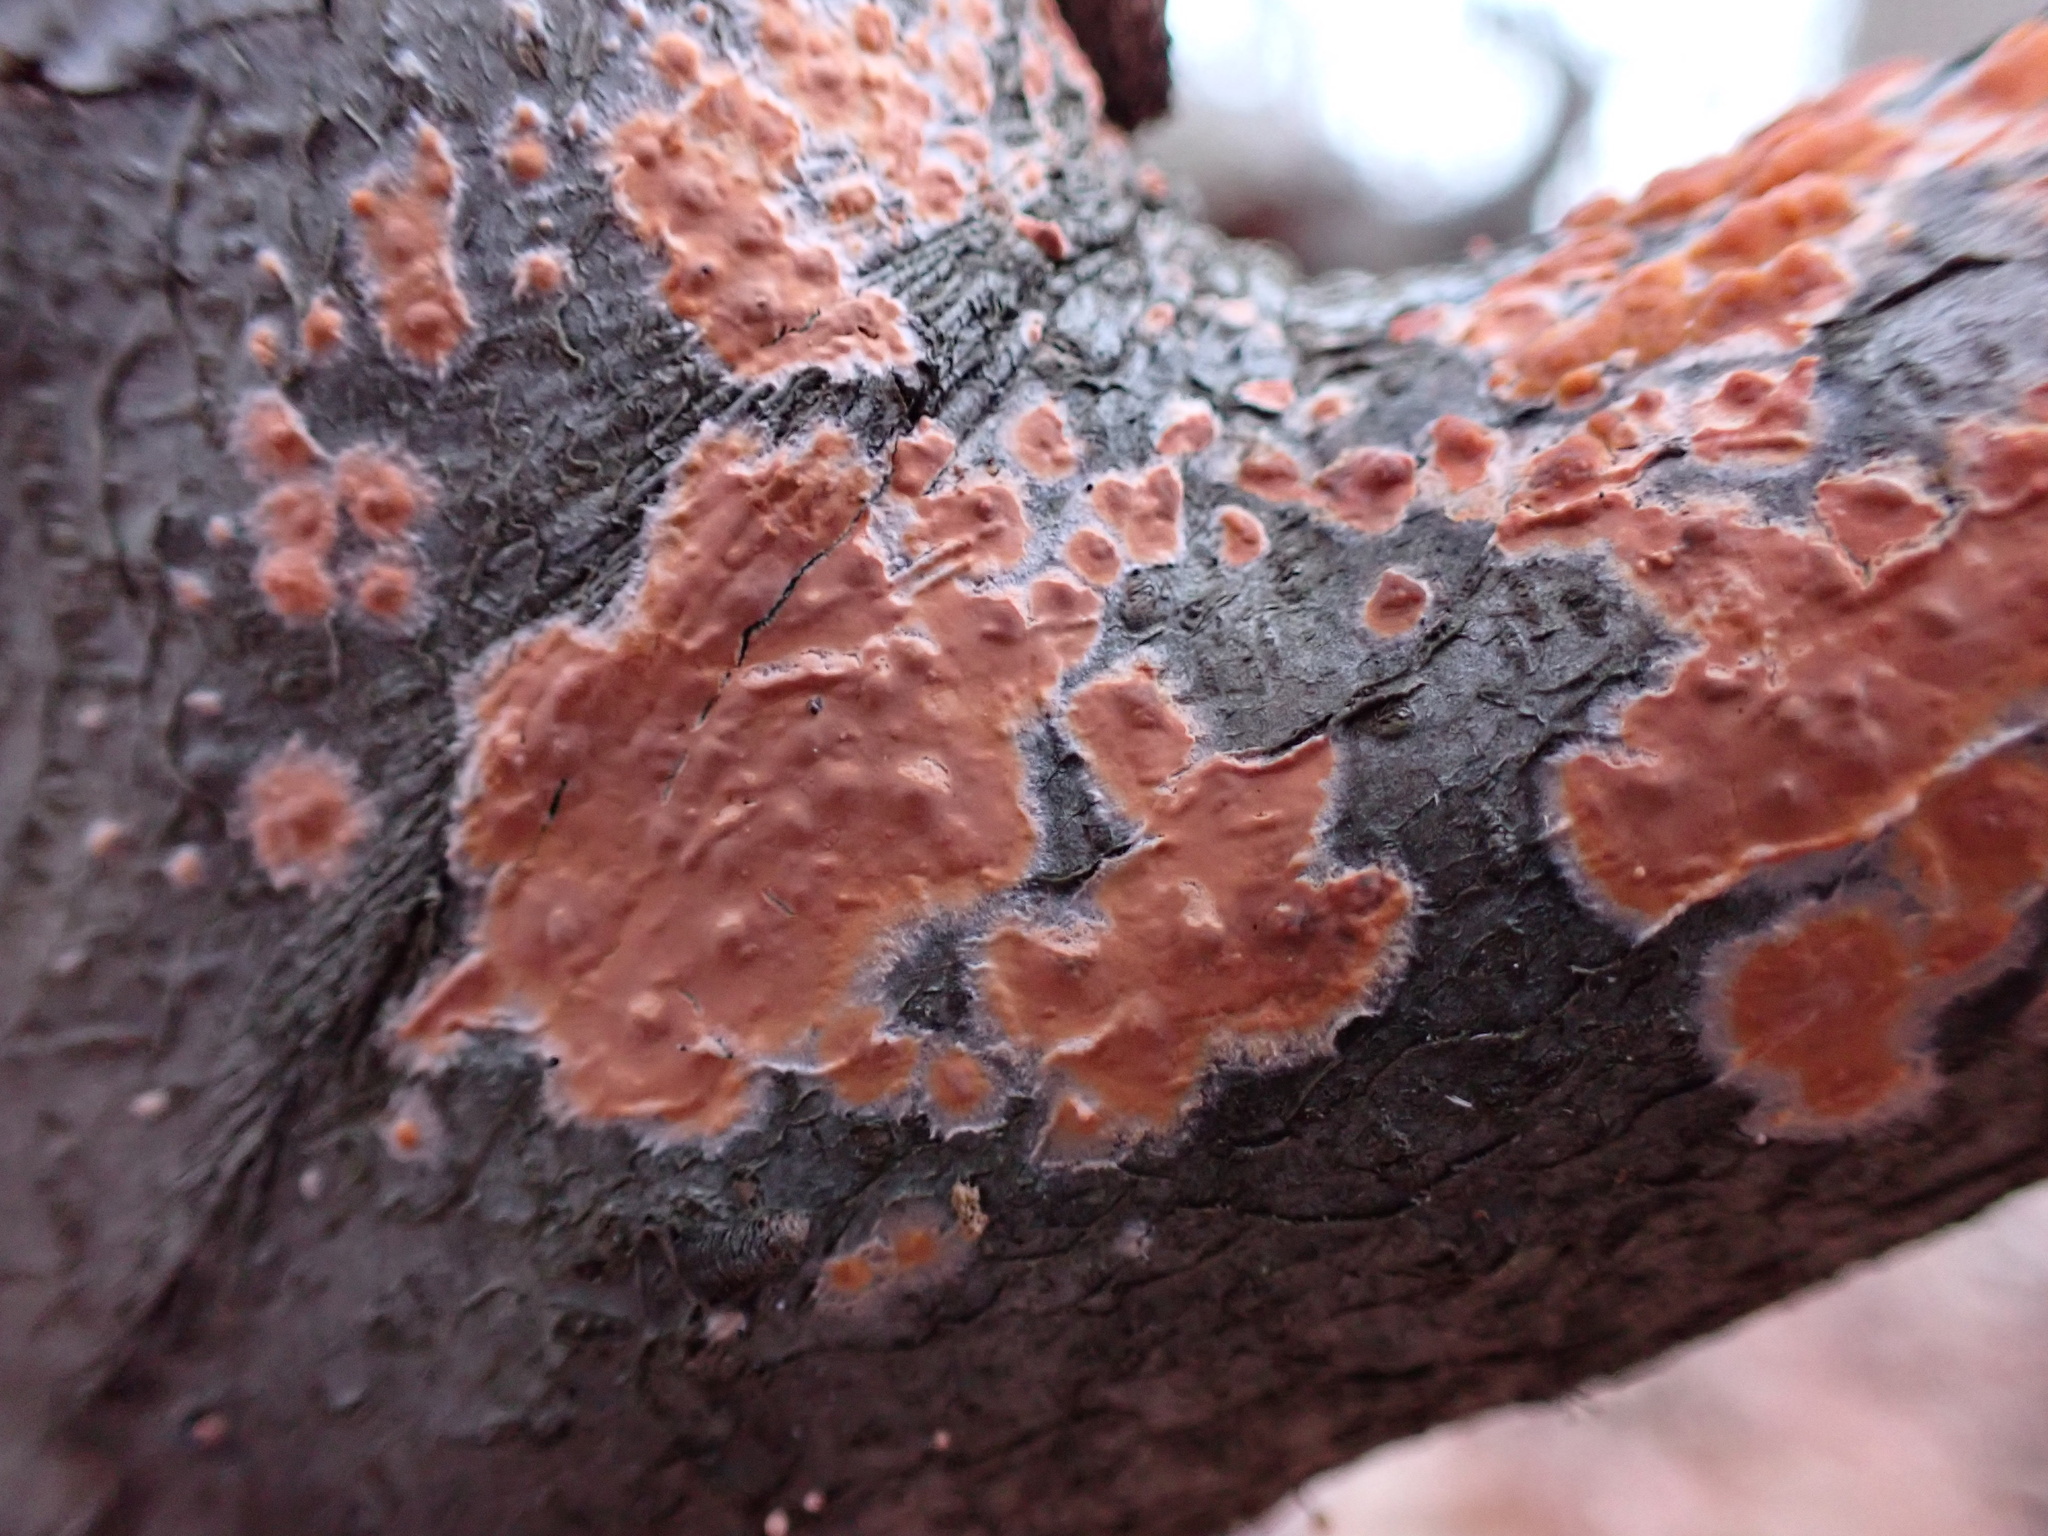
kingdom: Fungi
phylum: Basidiomycota
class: Agaricomycetes
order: Russulales
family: Peniophoraceae
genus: Peniophora
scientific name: Peniophora incarnata
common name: Rosy crust
